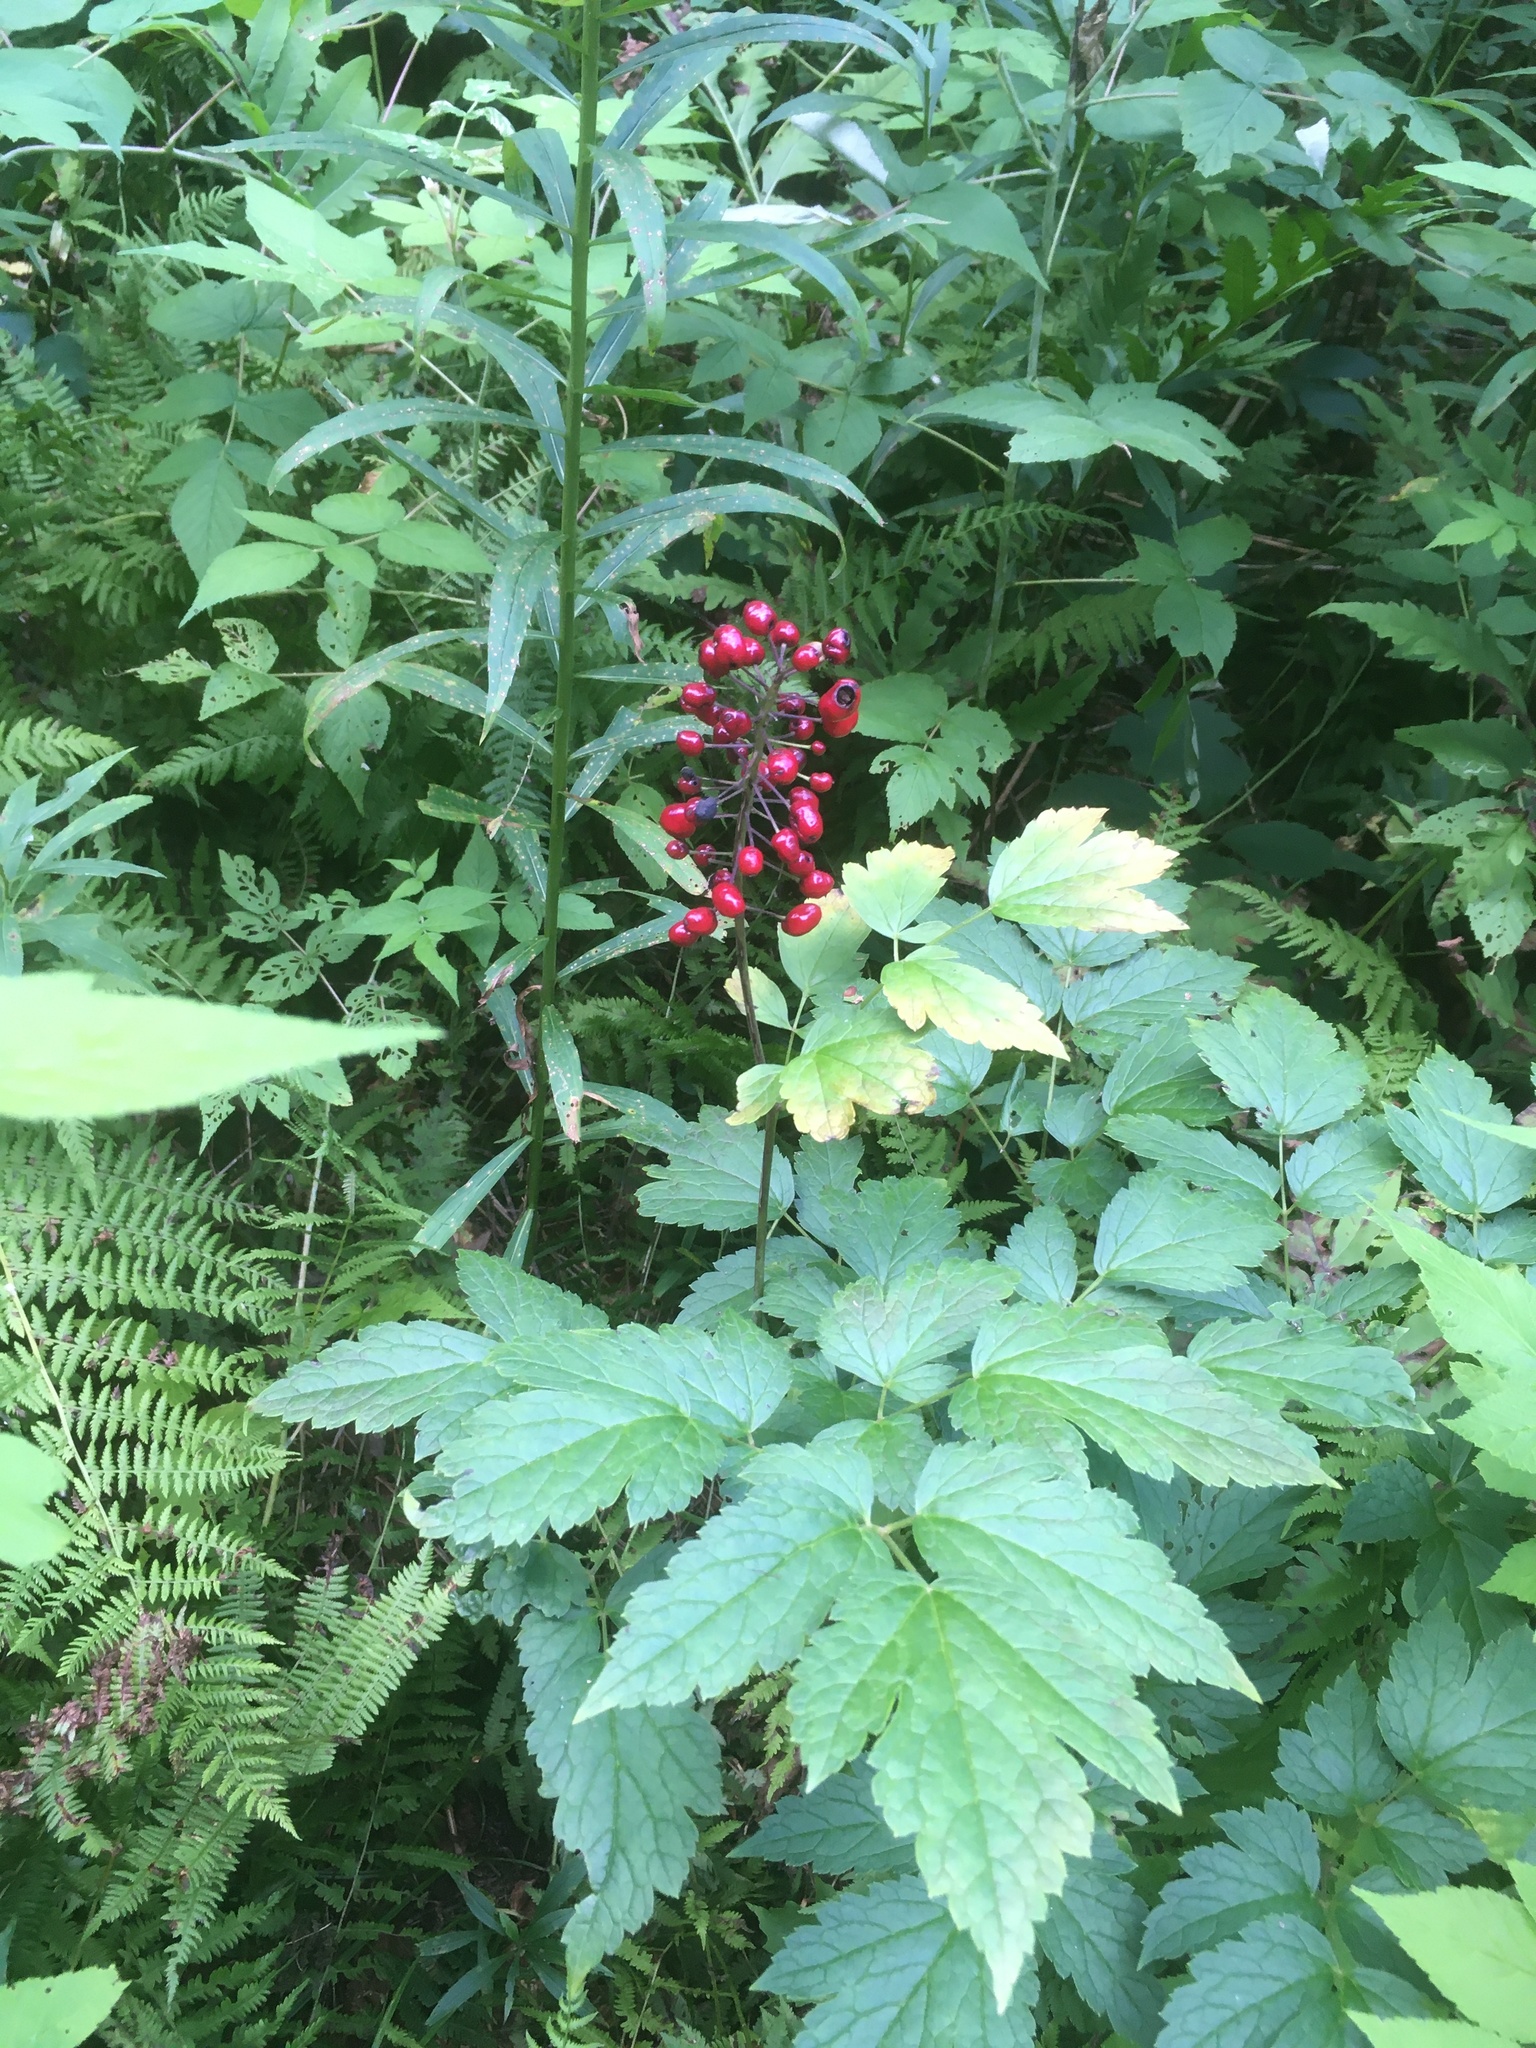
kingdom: Plantae
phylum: Tracheophyta
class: Magnoliopsida
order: Ranunculales
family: Ranunculaceae
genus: Actaea
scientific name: Actaea rubra
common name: Red baneberry
